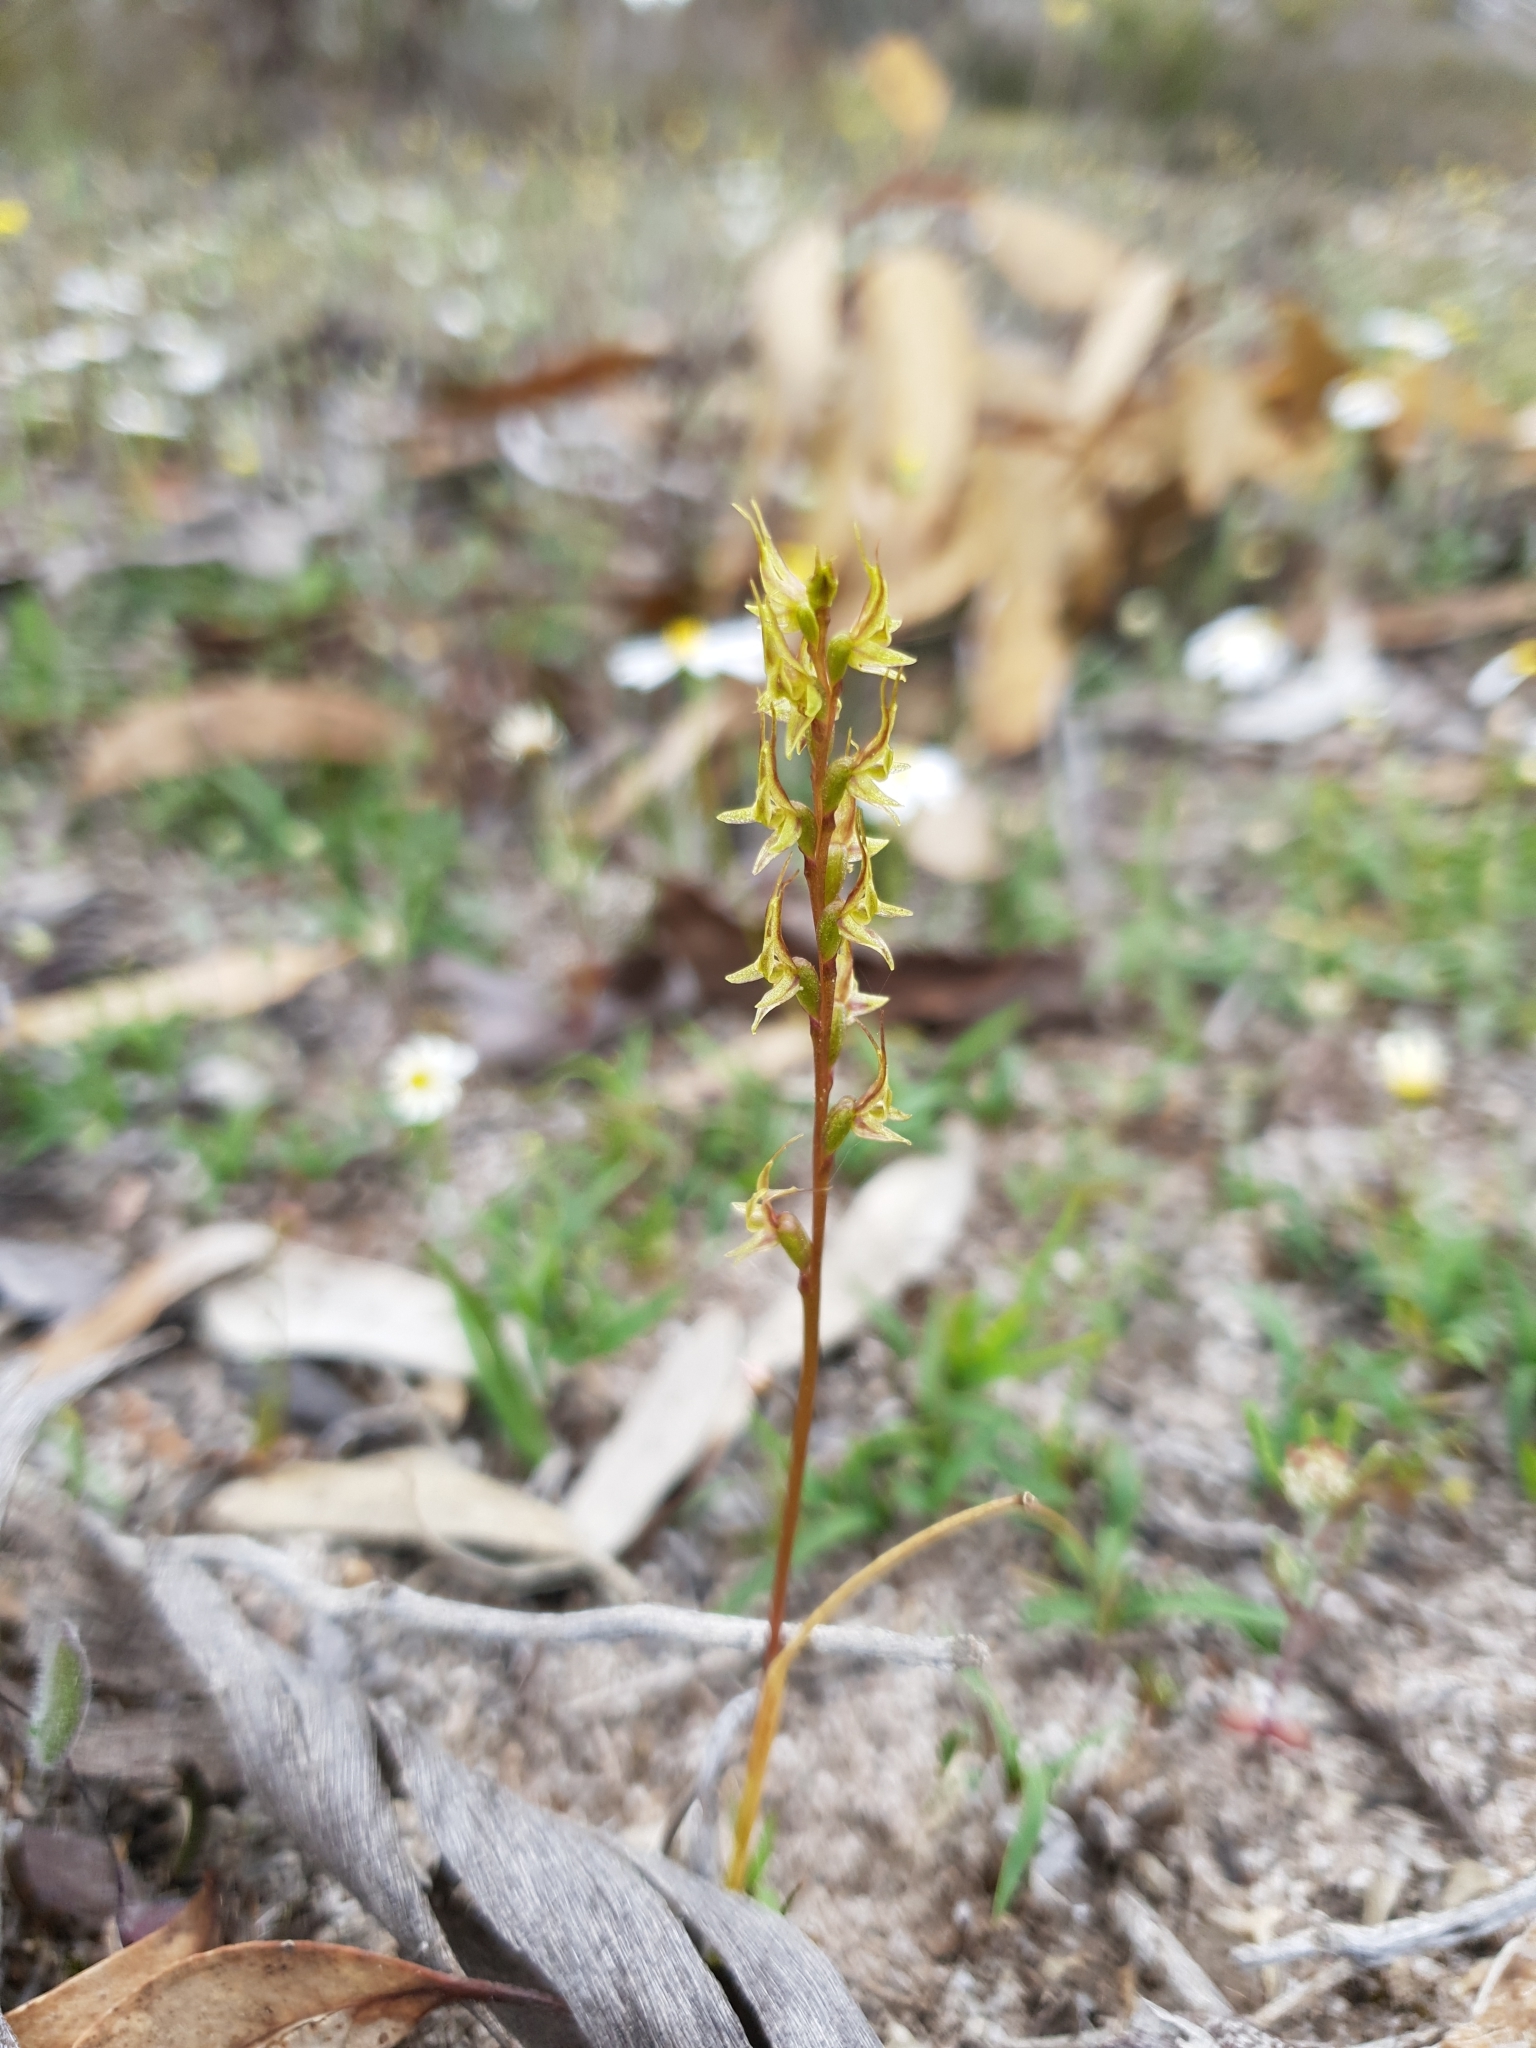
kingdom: Plantae
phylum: Tracheophyta
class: Liliopsida
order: Asparagales
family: Orchidaceae
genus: Prasophyllum
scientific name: Prasophyllum gracile
